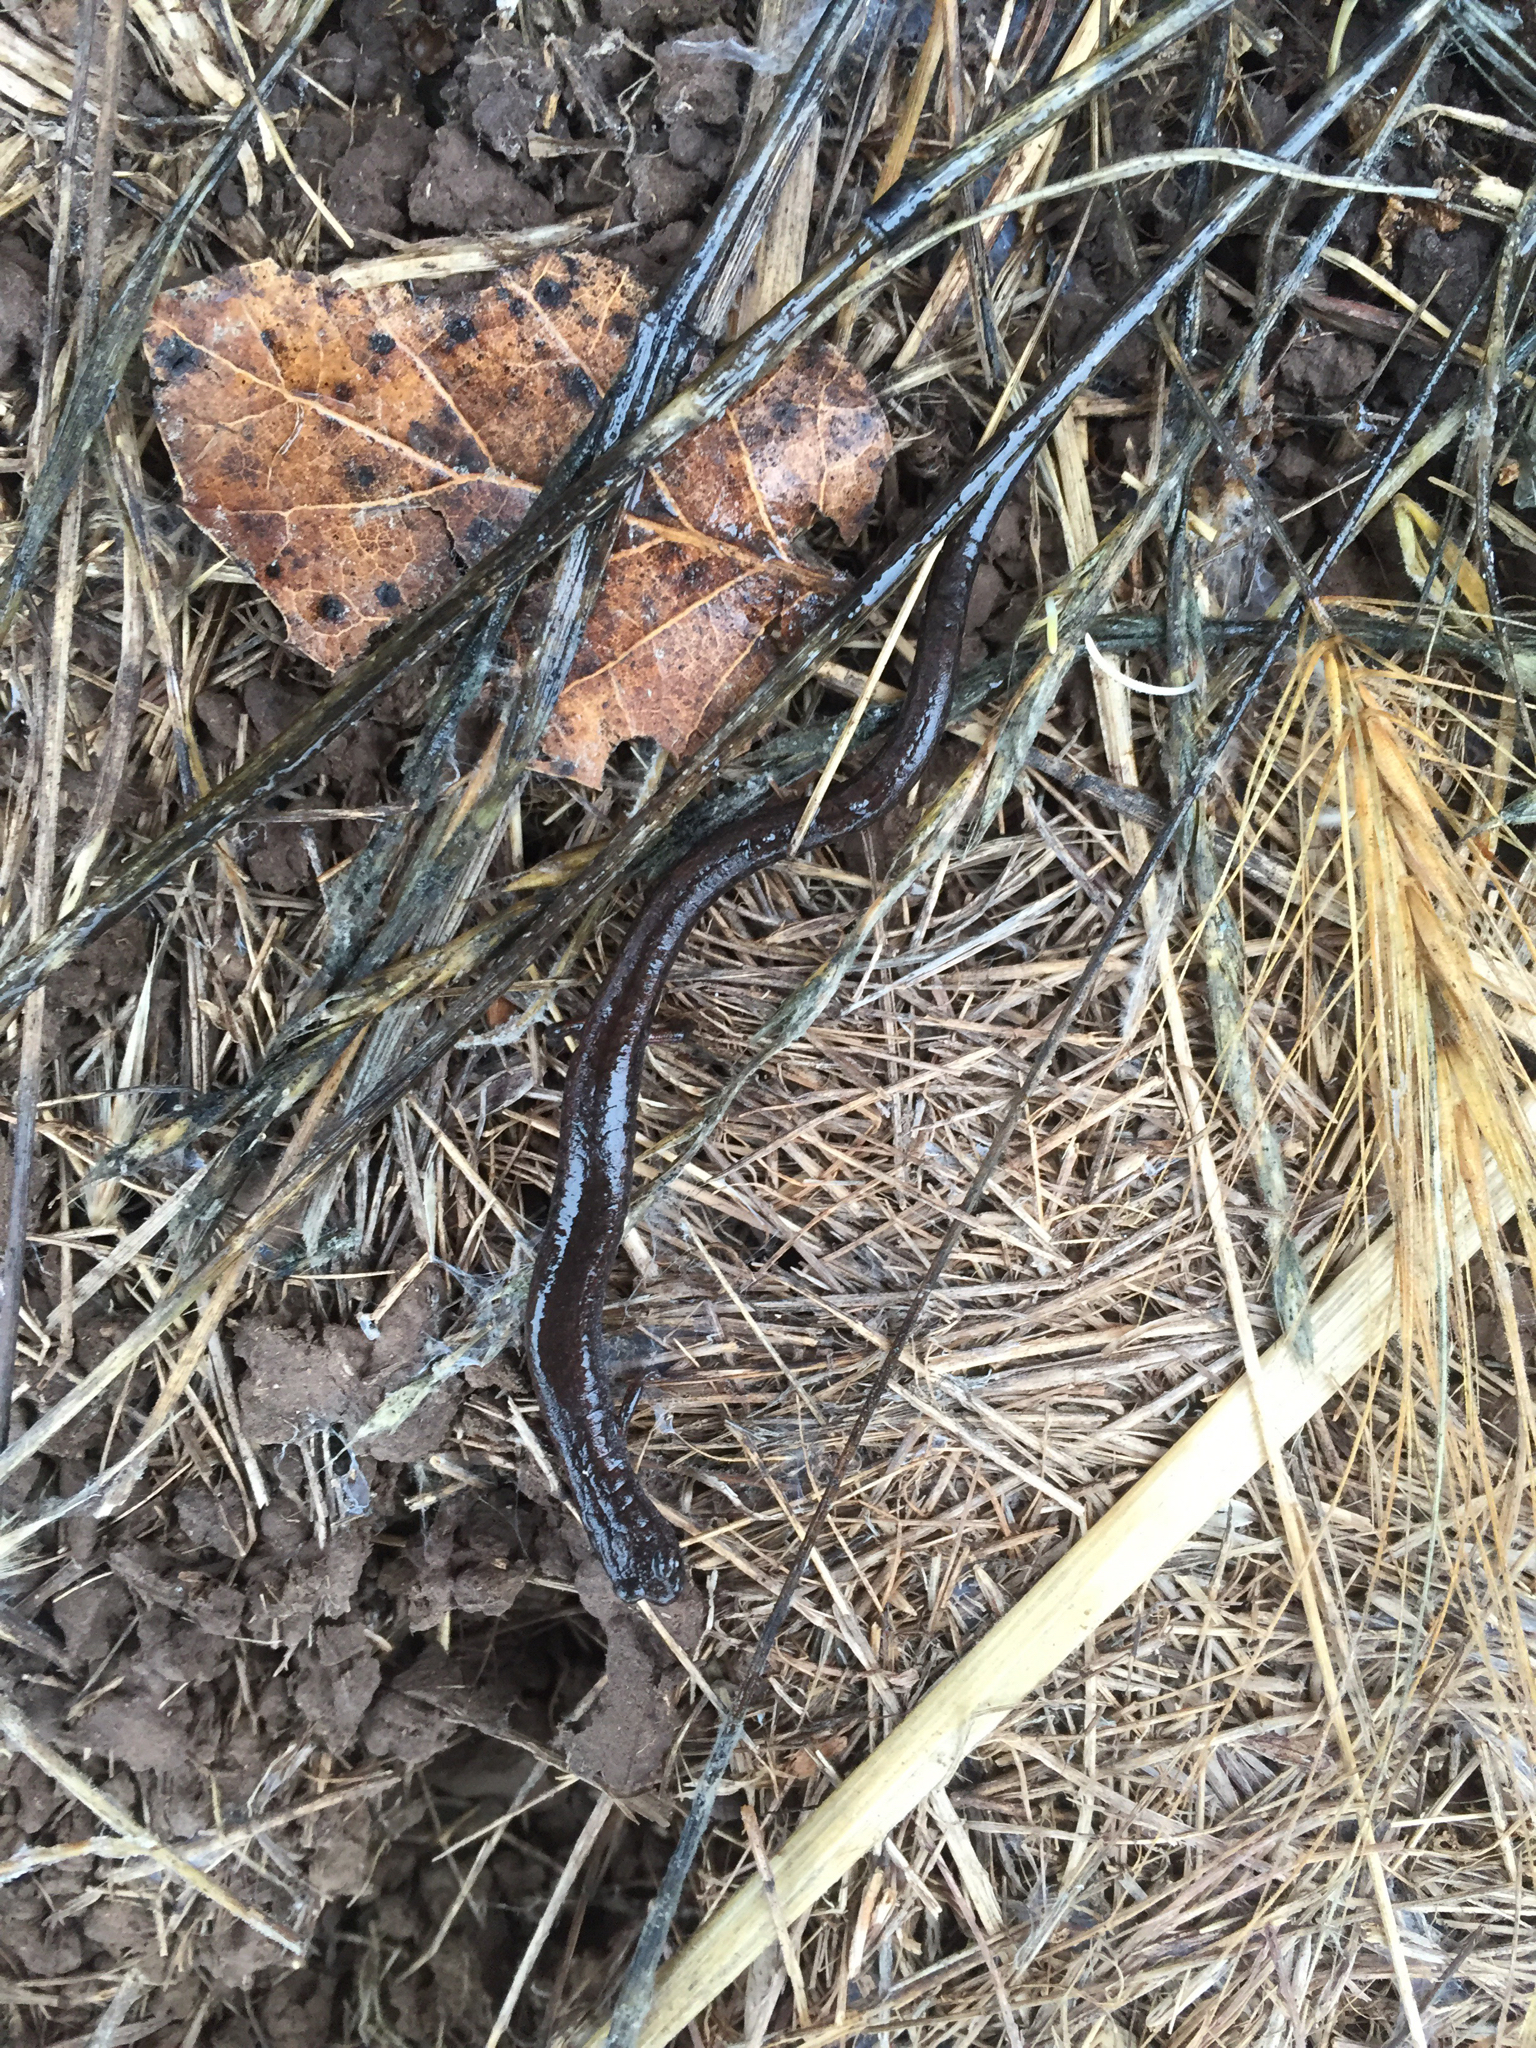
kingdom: Animalia
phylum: Chordata
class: Amphibia
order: Caudata
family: Plethodontidae
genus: Batrachoseps
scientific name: Batrachoseps attenuatus
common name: California slender salamander
